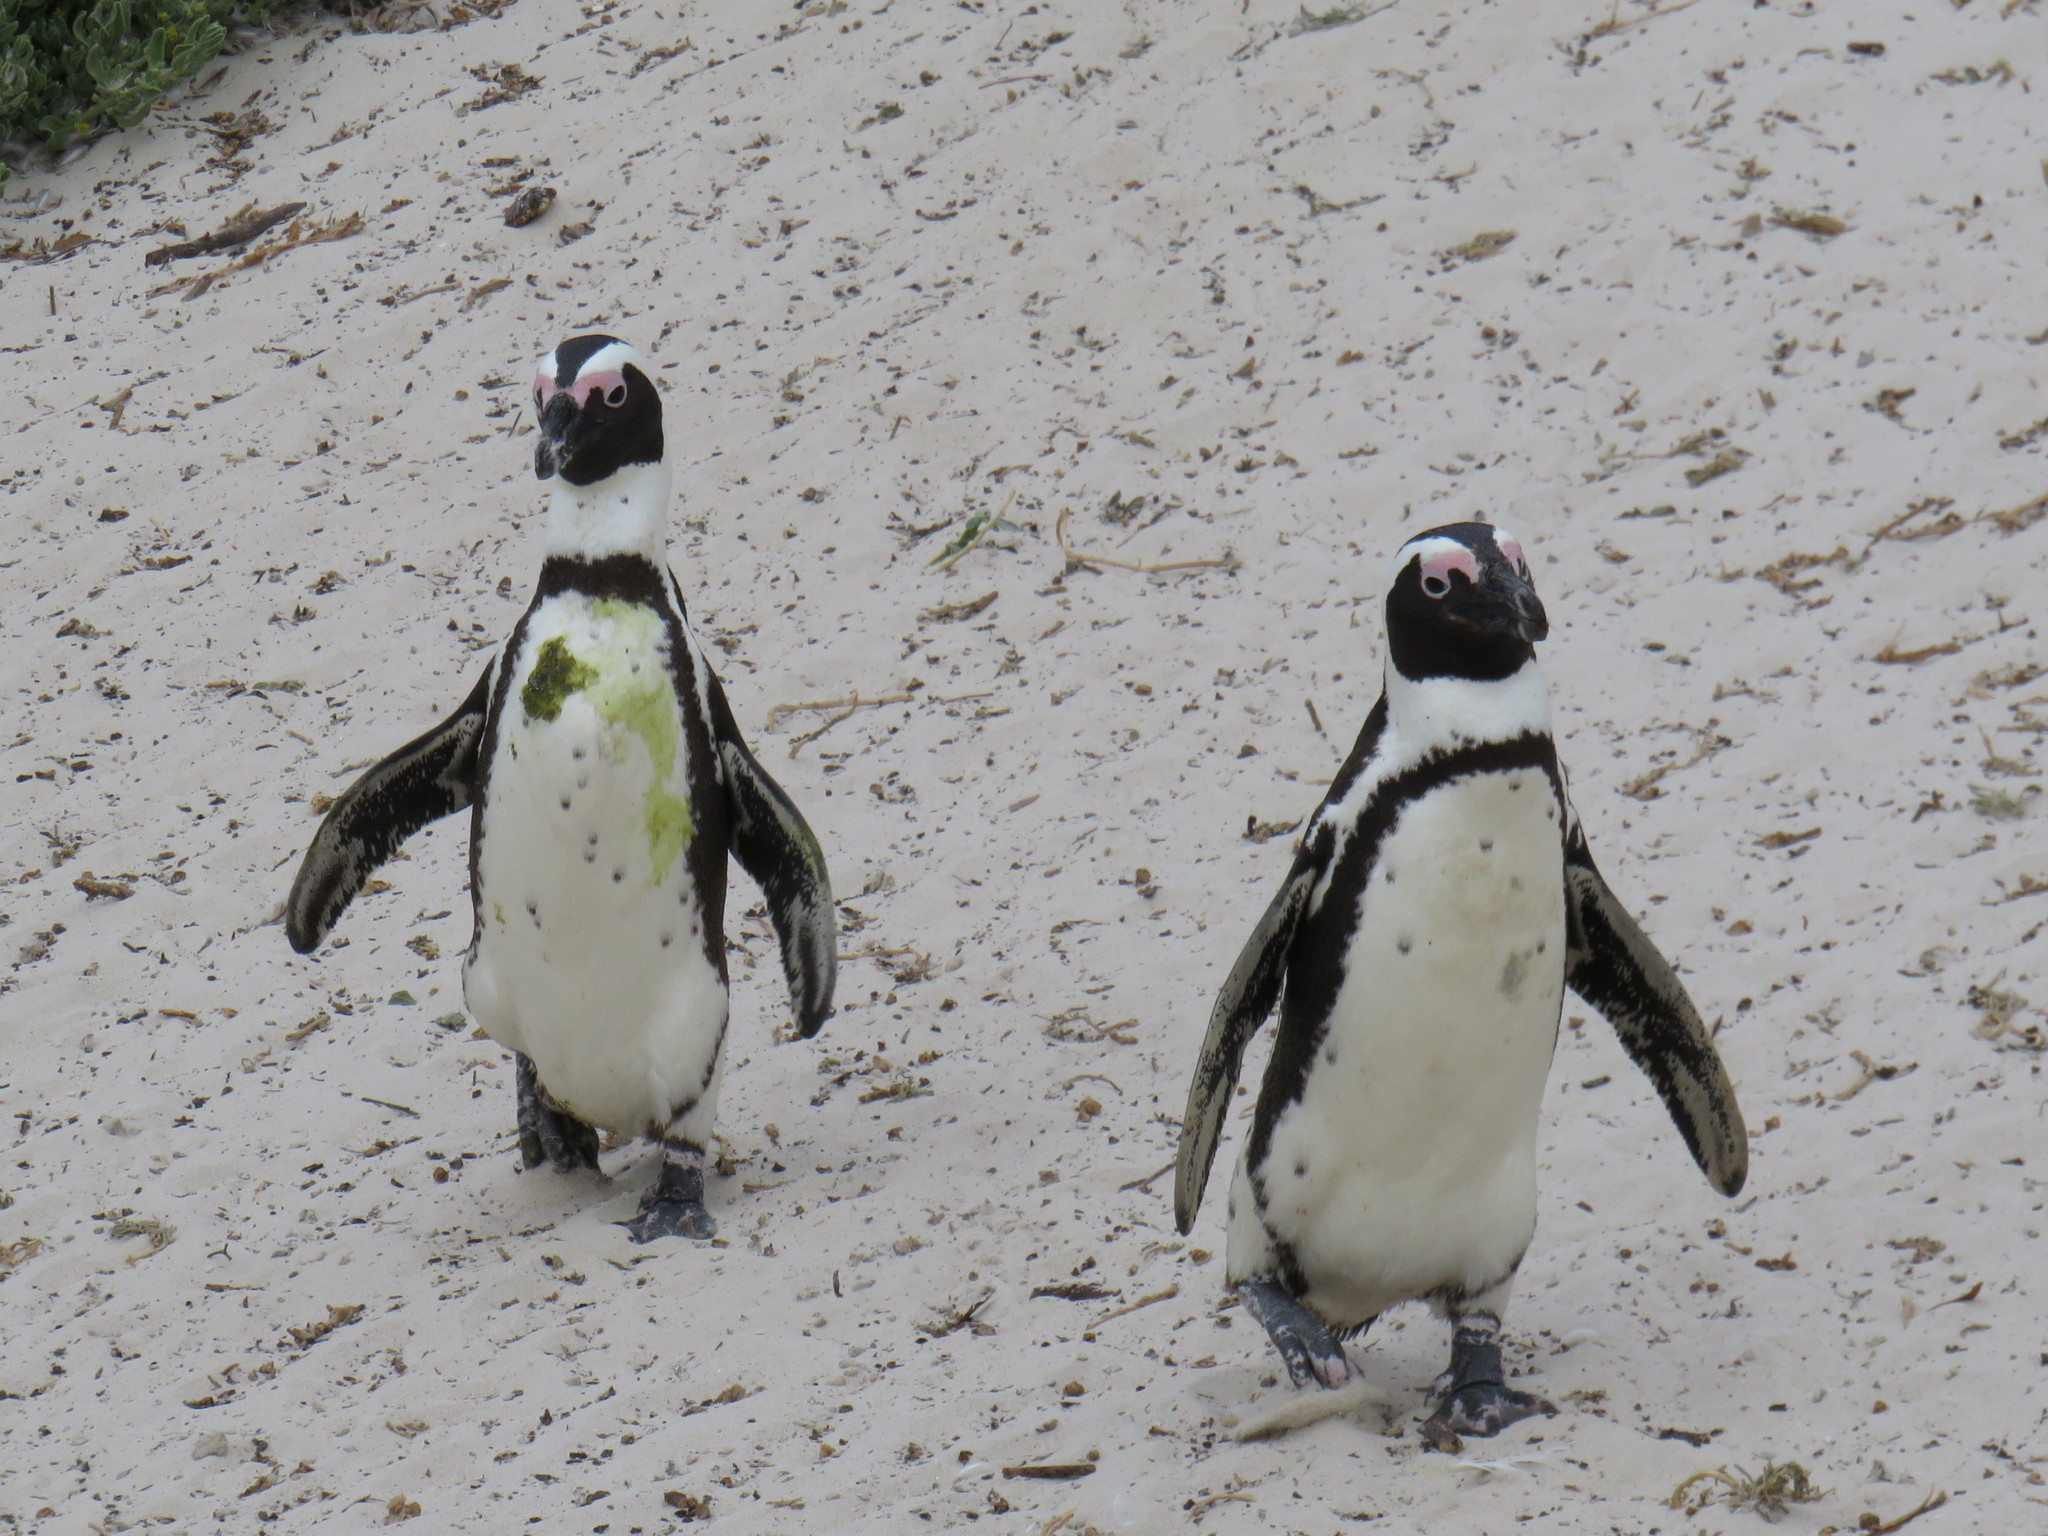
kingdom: Animalia
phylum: Chordata
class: Aves
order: Sphenisciformes
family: Spheniscidae
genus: Spheniscus
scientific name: Spheniscus demersus
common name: African penguin
